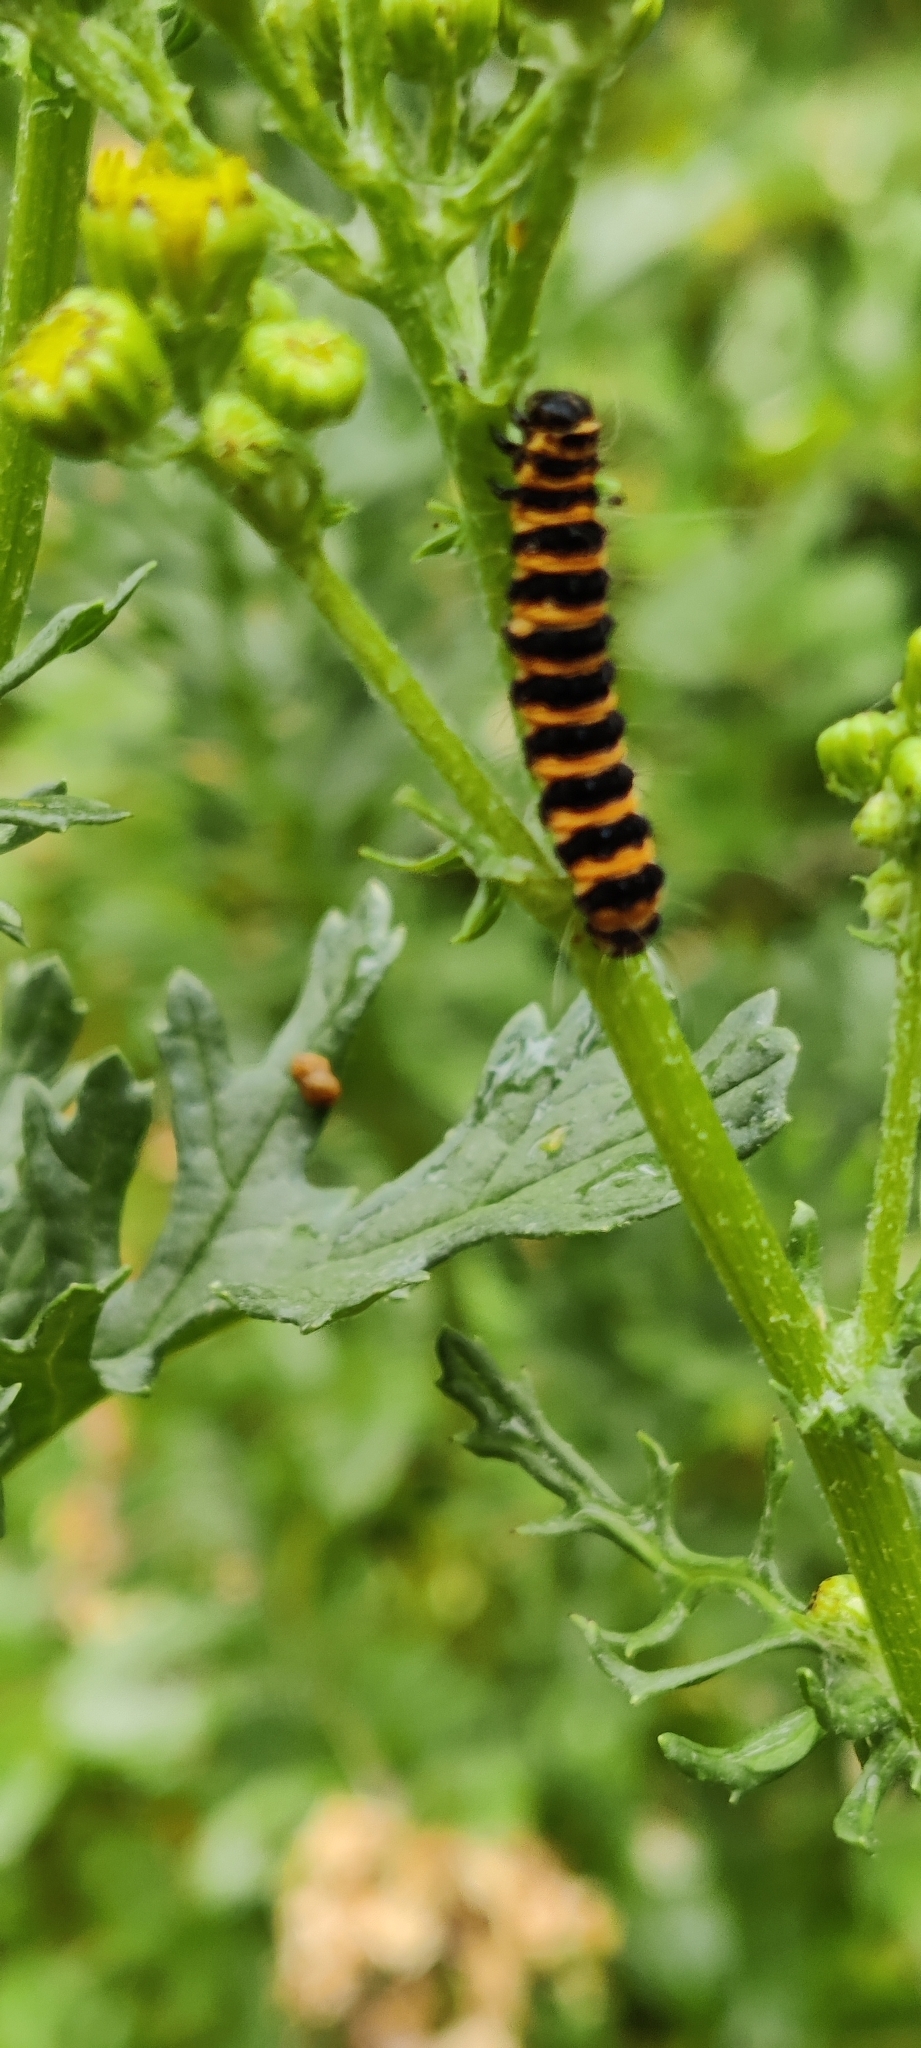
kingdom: Animalia
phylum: Arthropoda
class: Insecta
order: Lepidoptera
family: Erebidae
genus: Tyria
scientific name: Tyria jacobaeae
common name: Cinnabar
